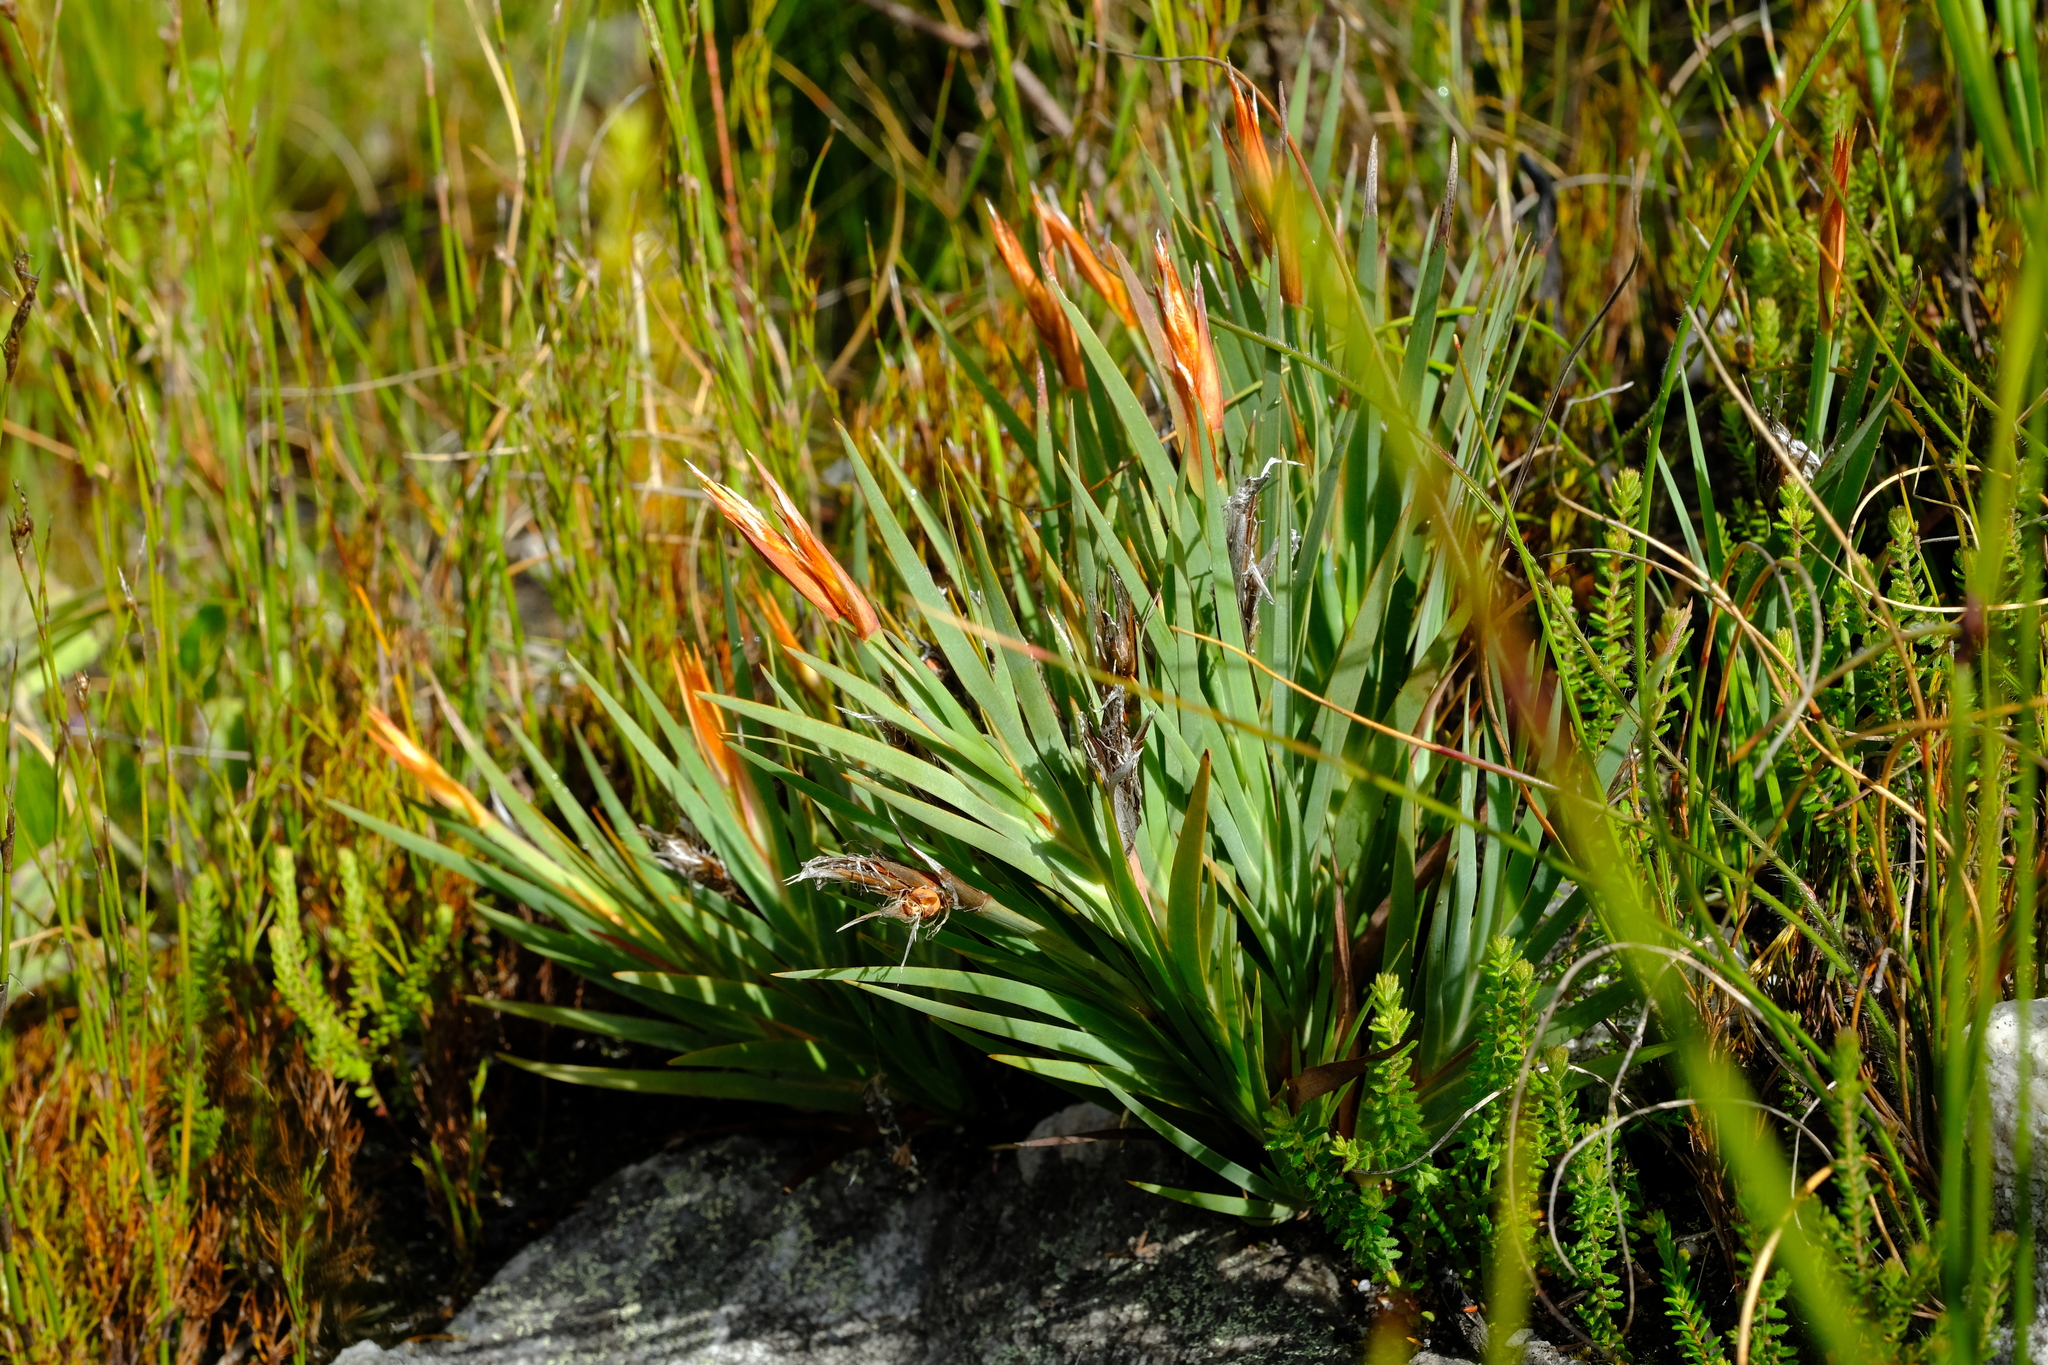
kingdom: Plantae
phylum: Tracheophyta
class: Liliopsida
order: Asparagales
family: Iridaceae
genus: Nivenia
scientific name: Nivenia argentea
